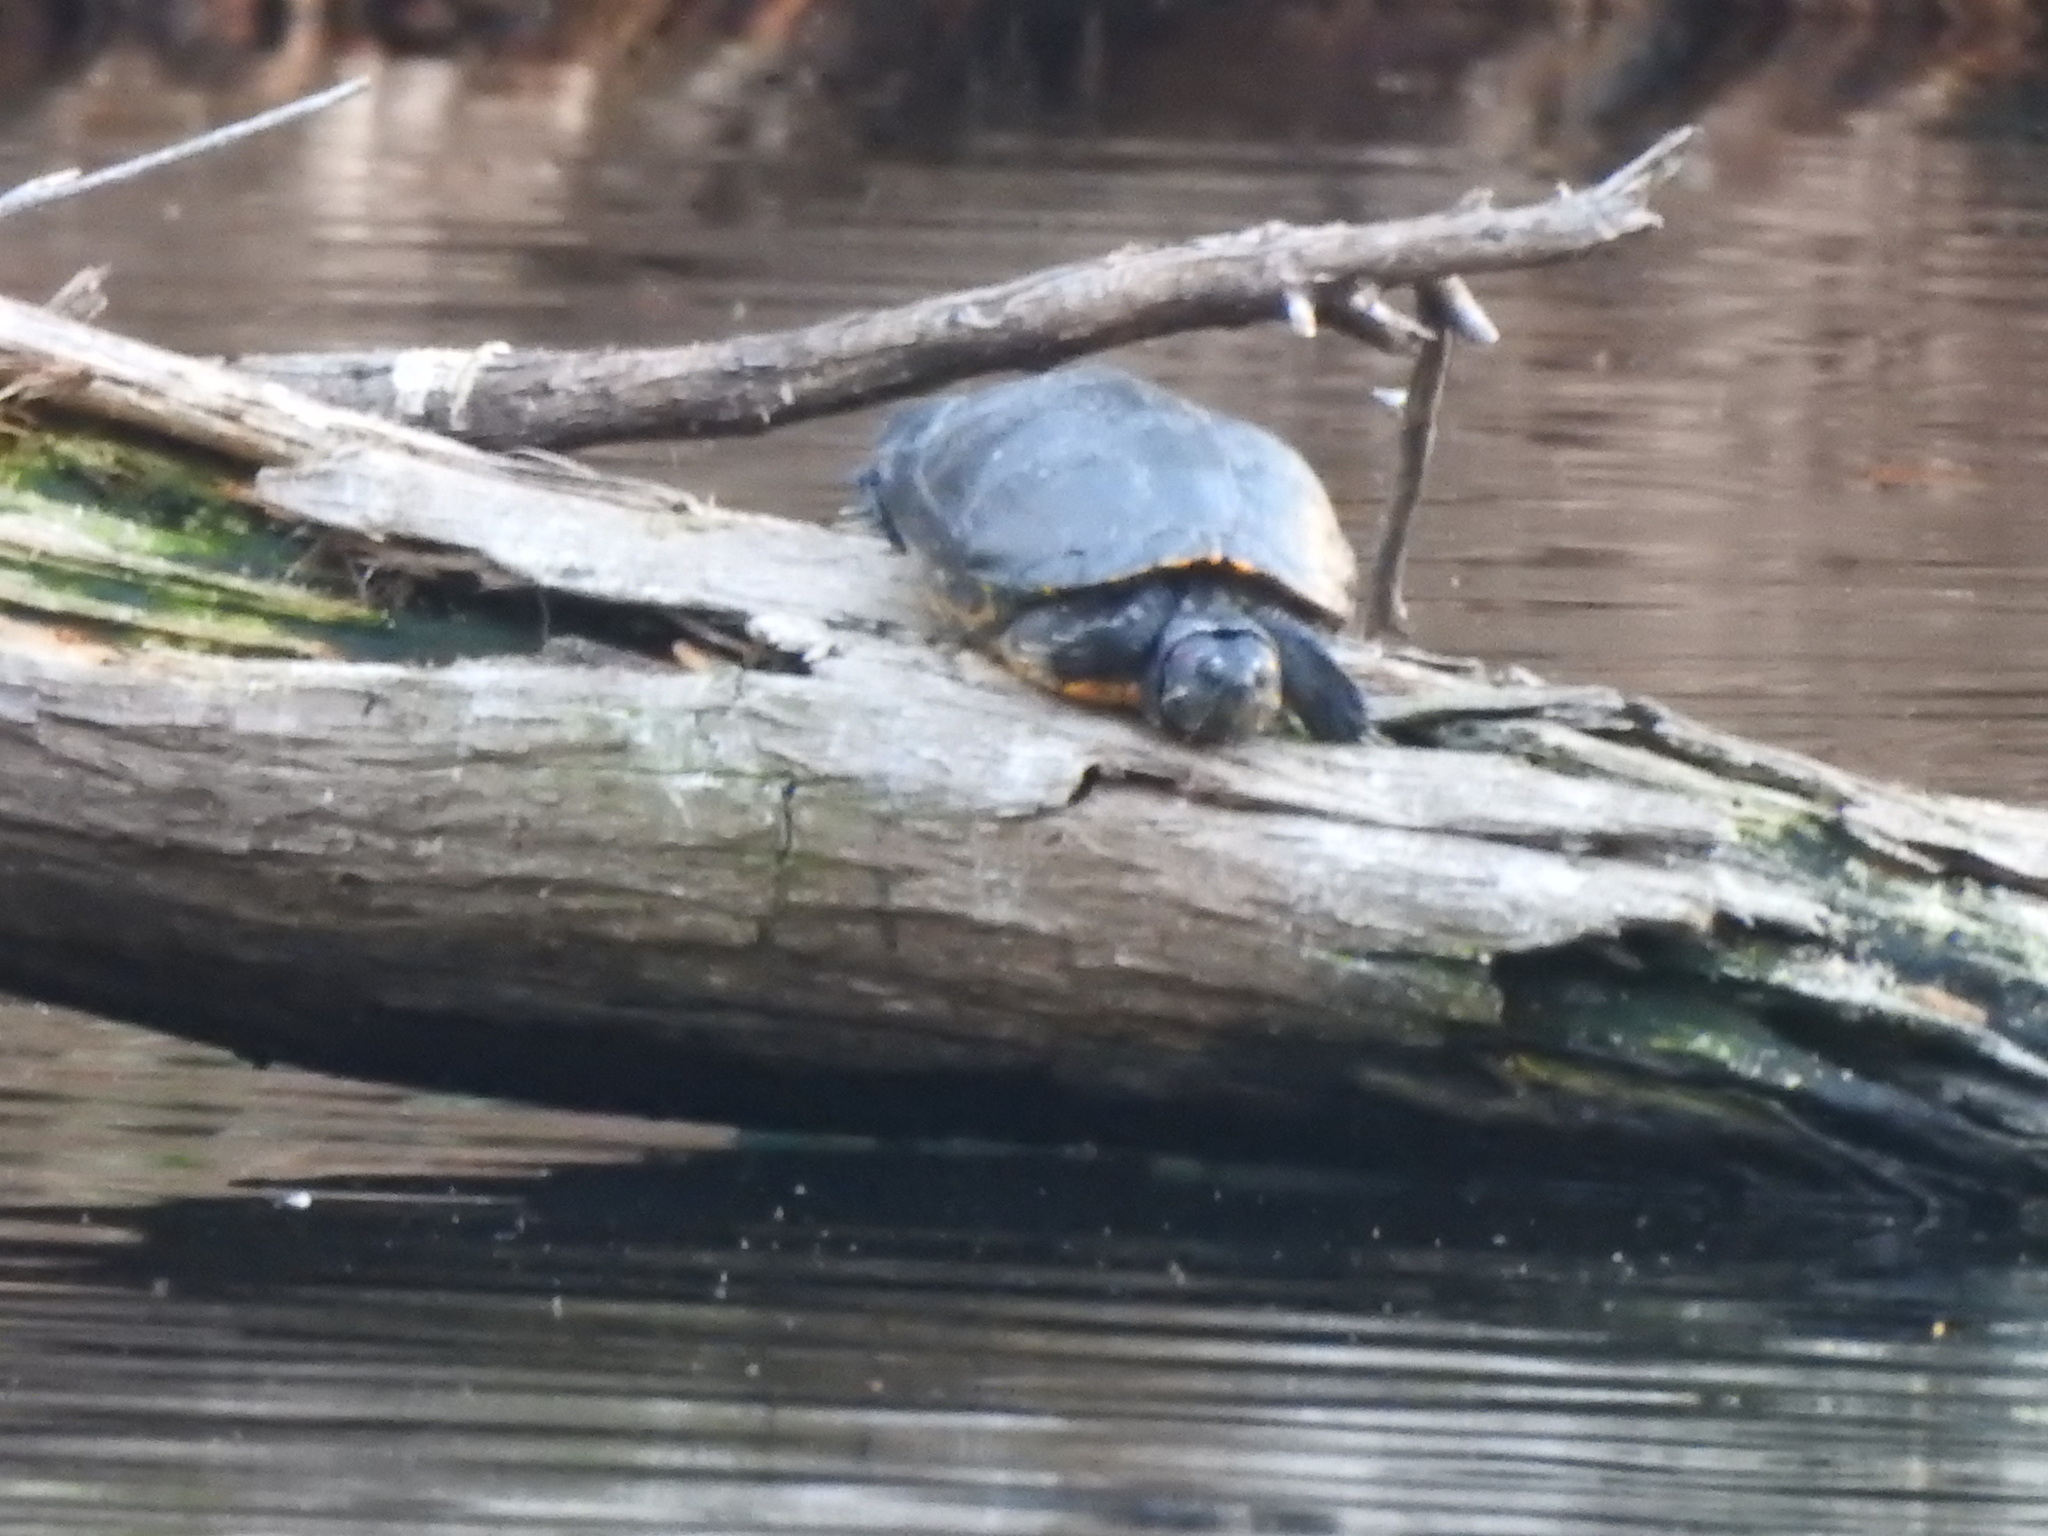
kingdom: Animalia
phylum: Chordata
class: Testudines
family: Emydidae
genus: Trachemys
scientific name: Trachemys scripta
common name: Slider
